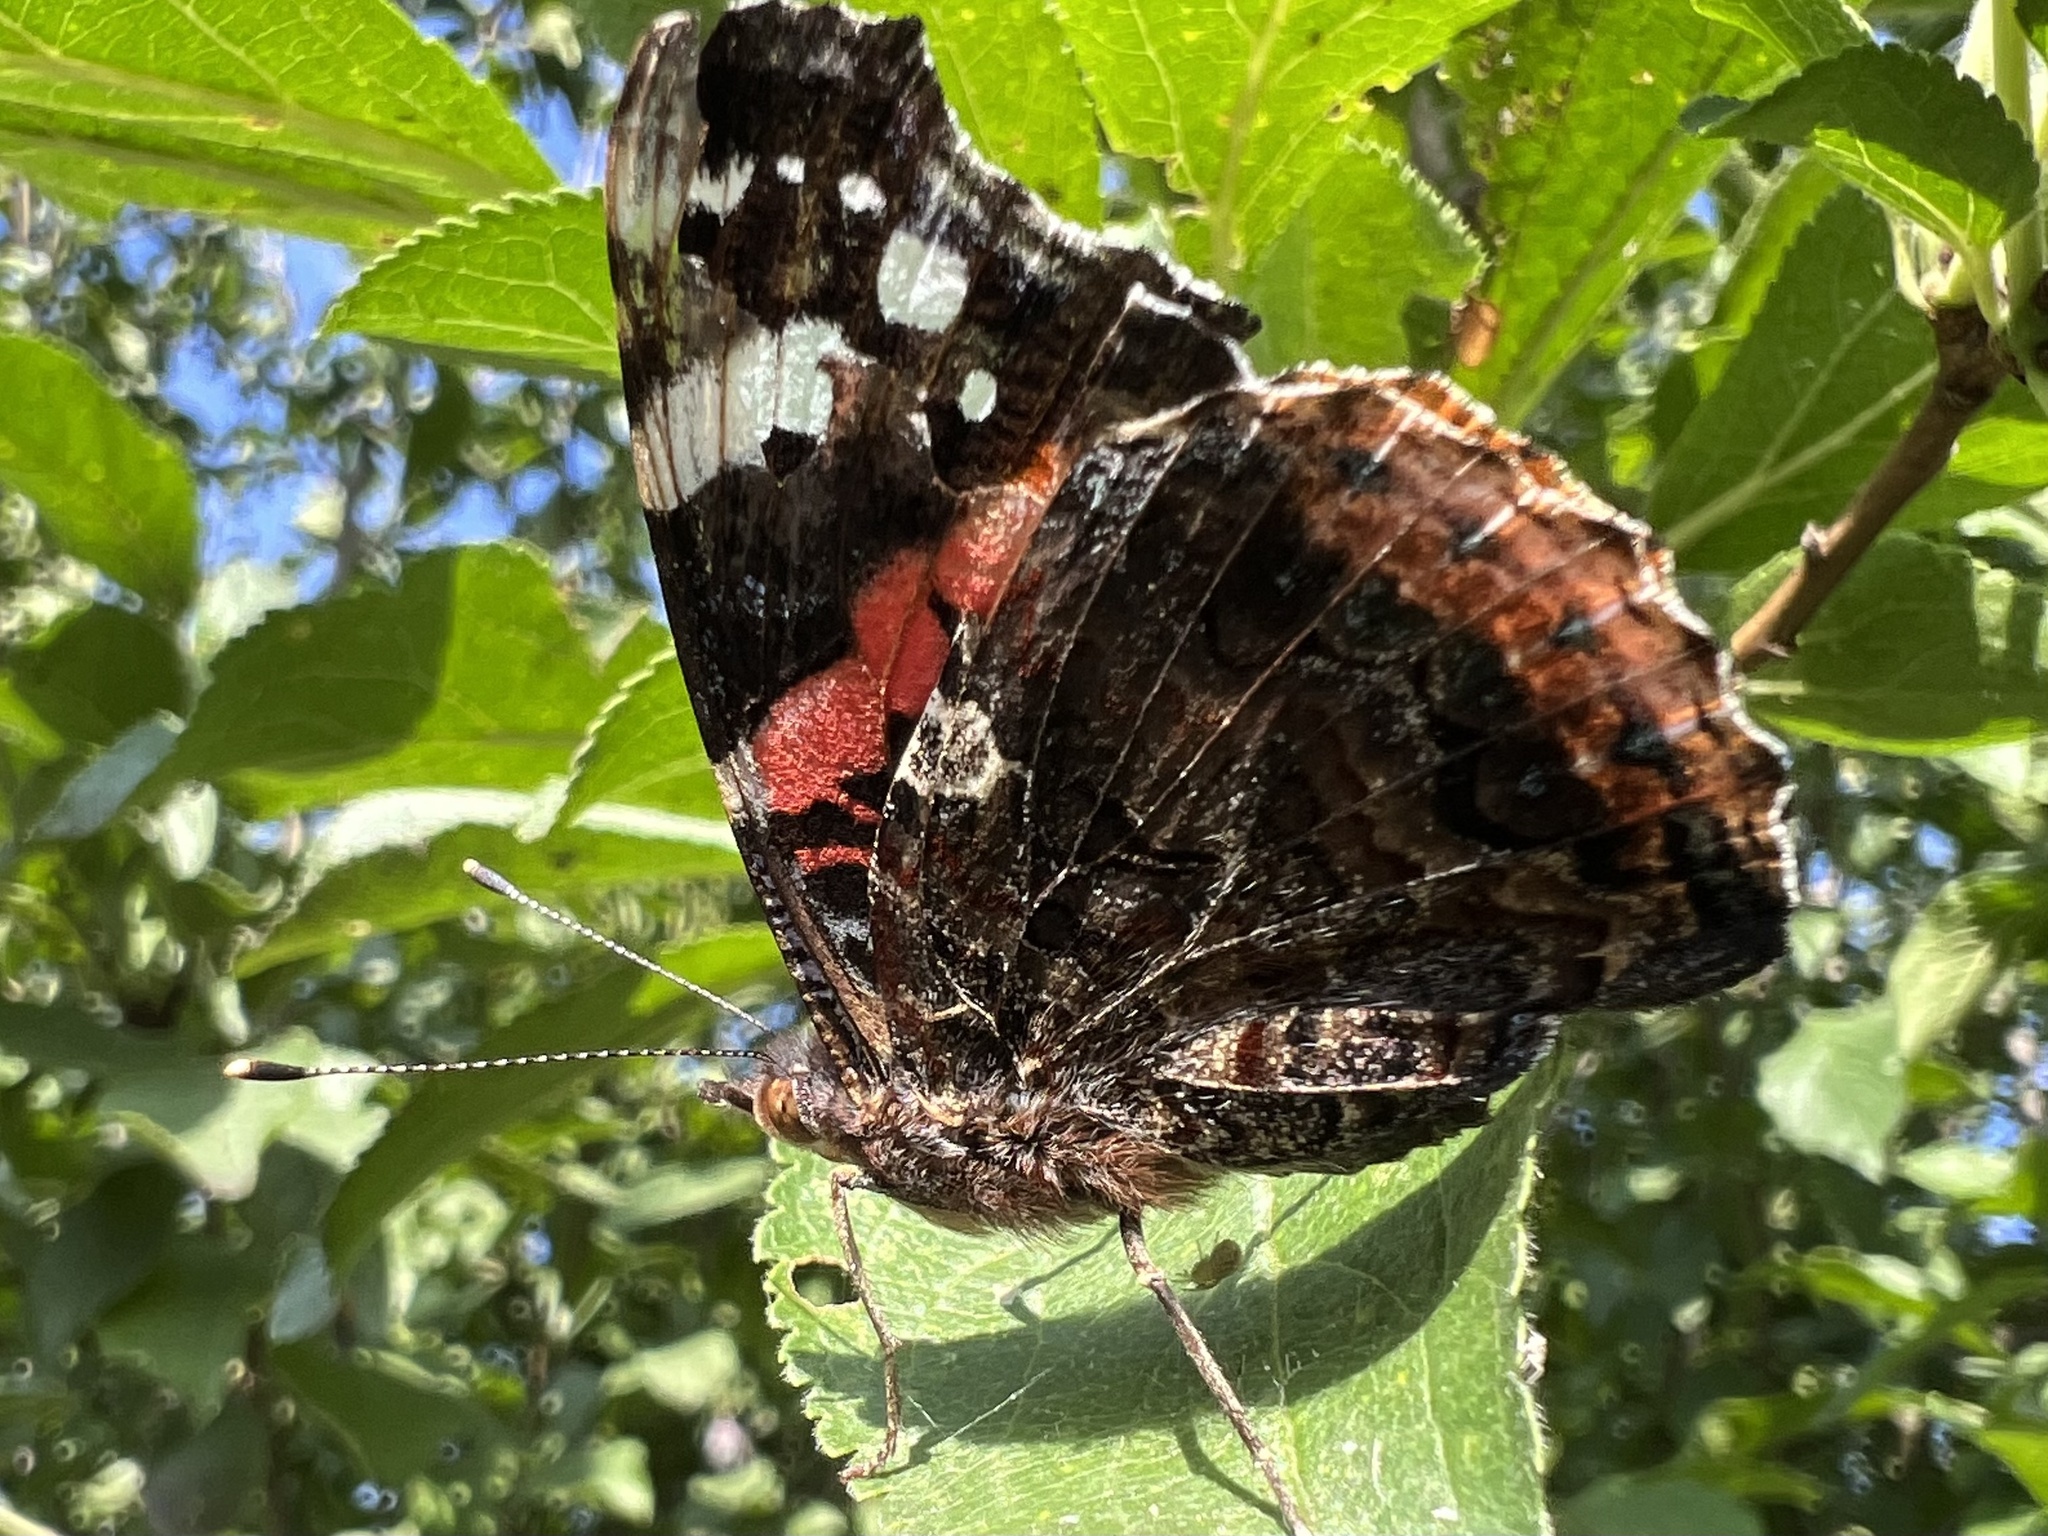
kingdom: Animalia
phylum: Arthropoda
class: Insecta
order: Lepidoptera
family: Nymphalidae
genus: Vanessa
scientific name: Vanessa atalanta
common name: Red admiral
